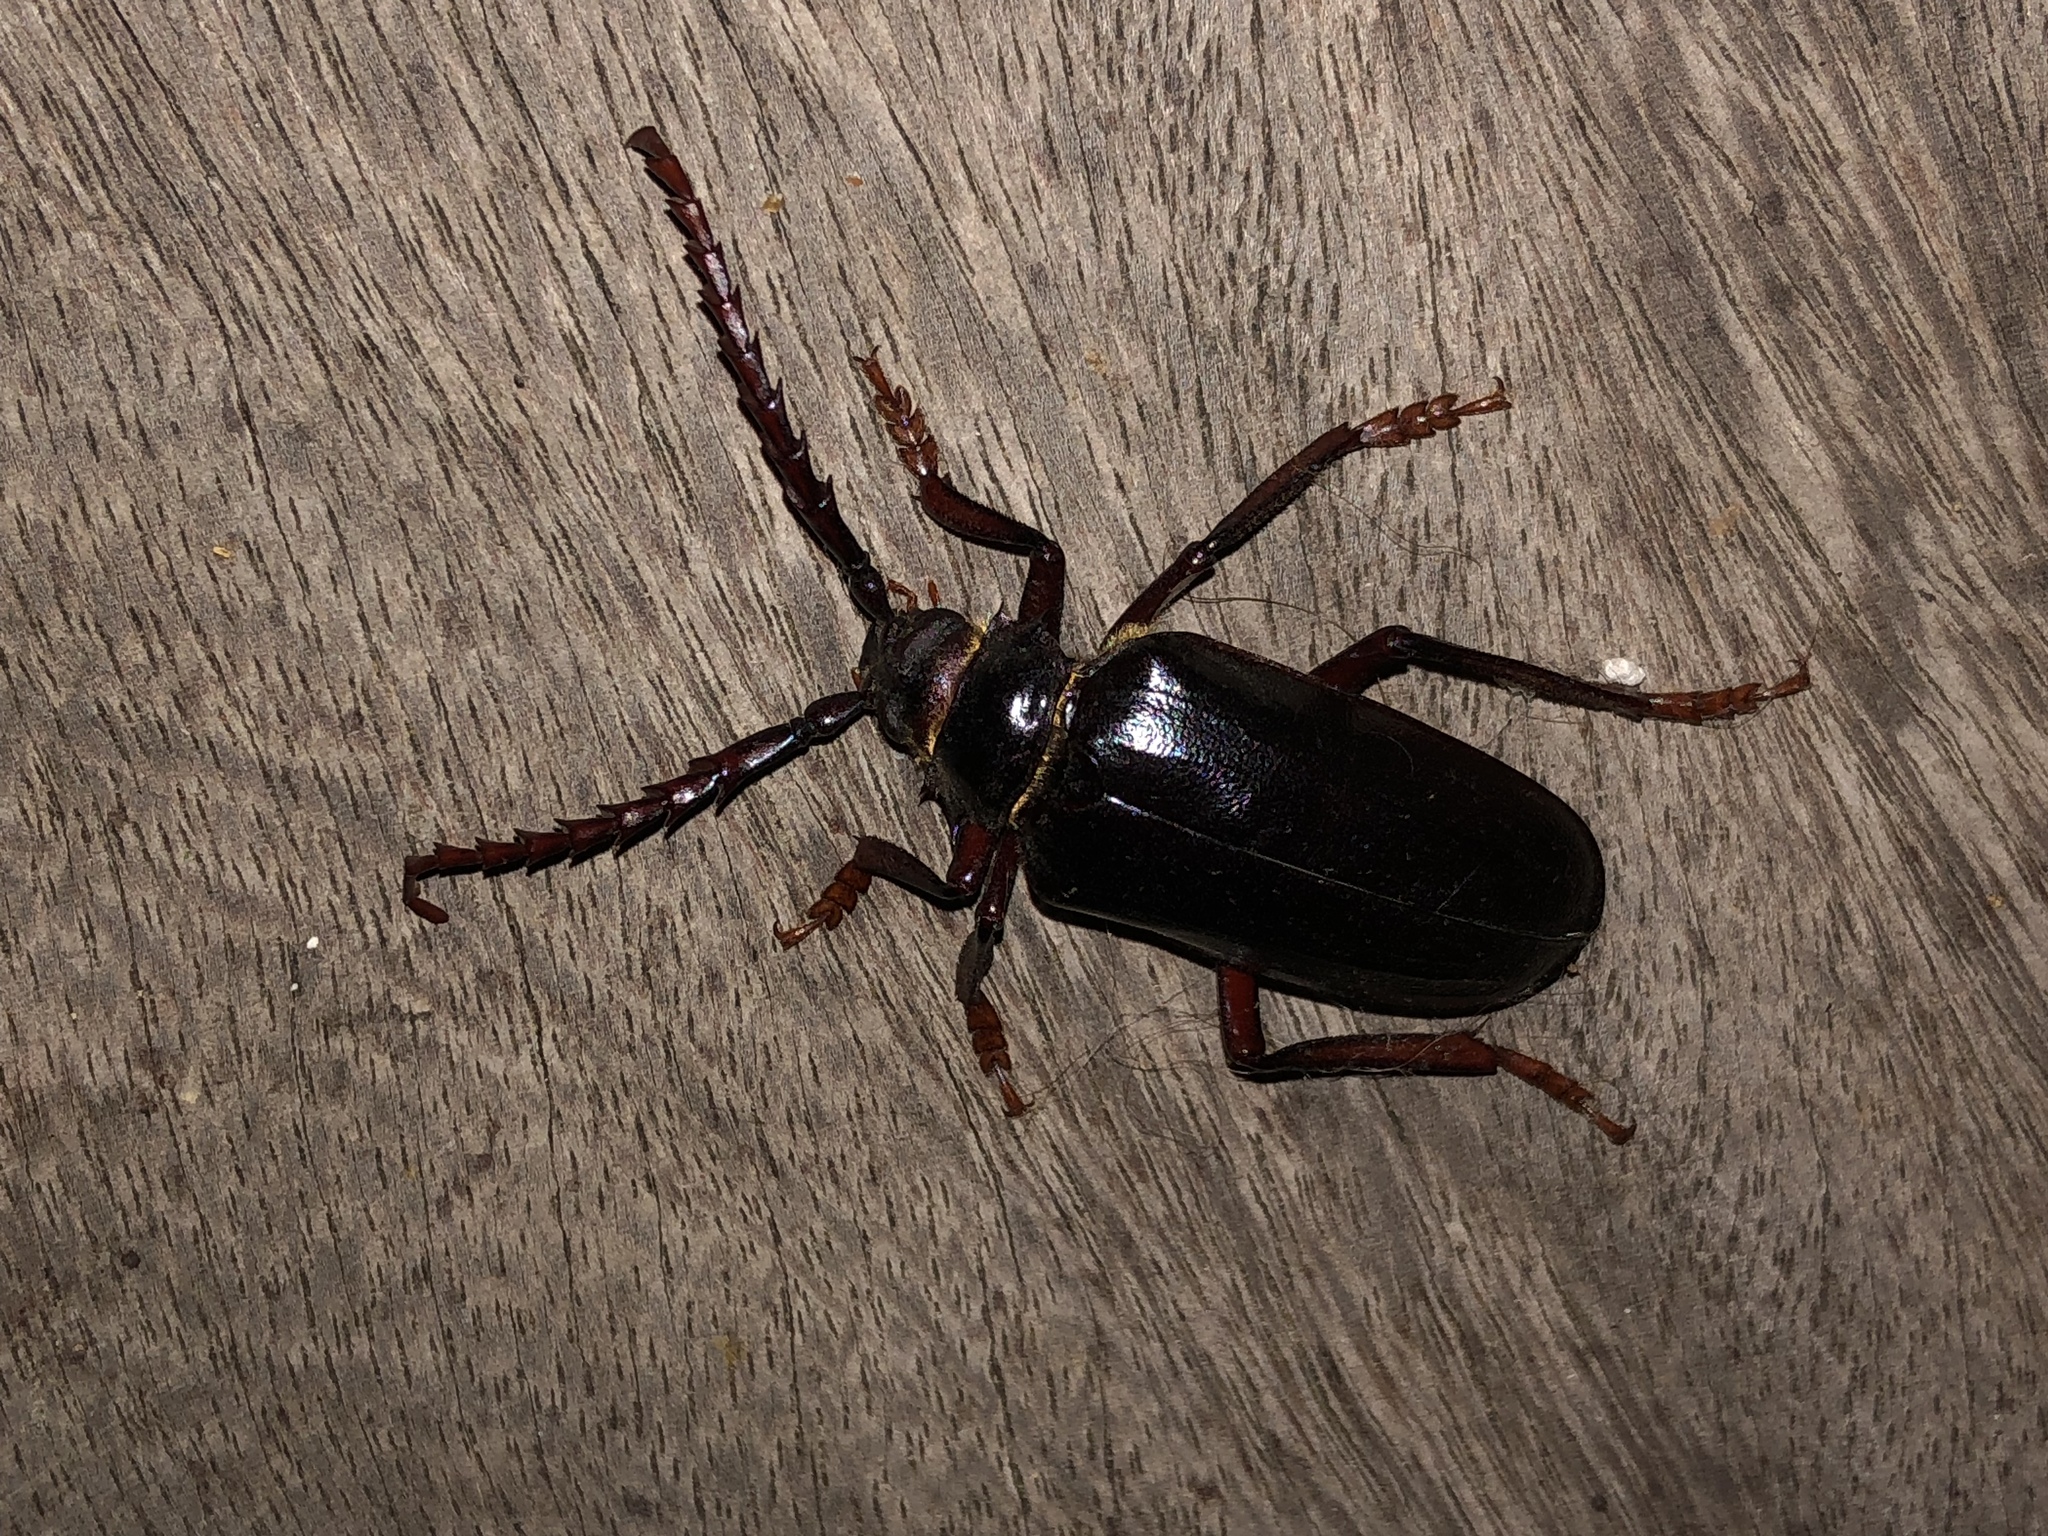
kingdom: Animalia
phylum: Arthropoda
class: Insecta
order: Coleoptera
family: Cerambycidae
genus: Prionus
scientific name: Prionus californicus
